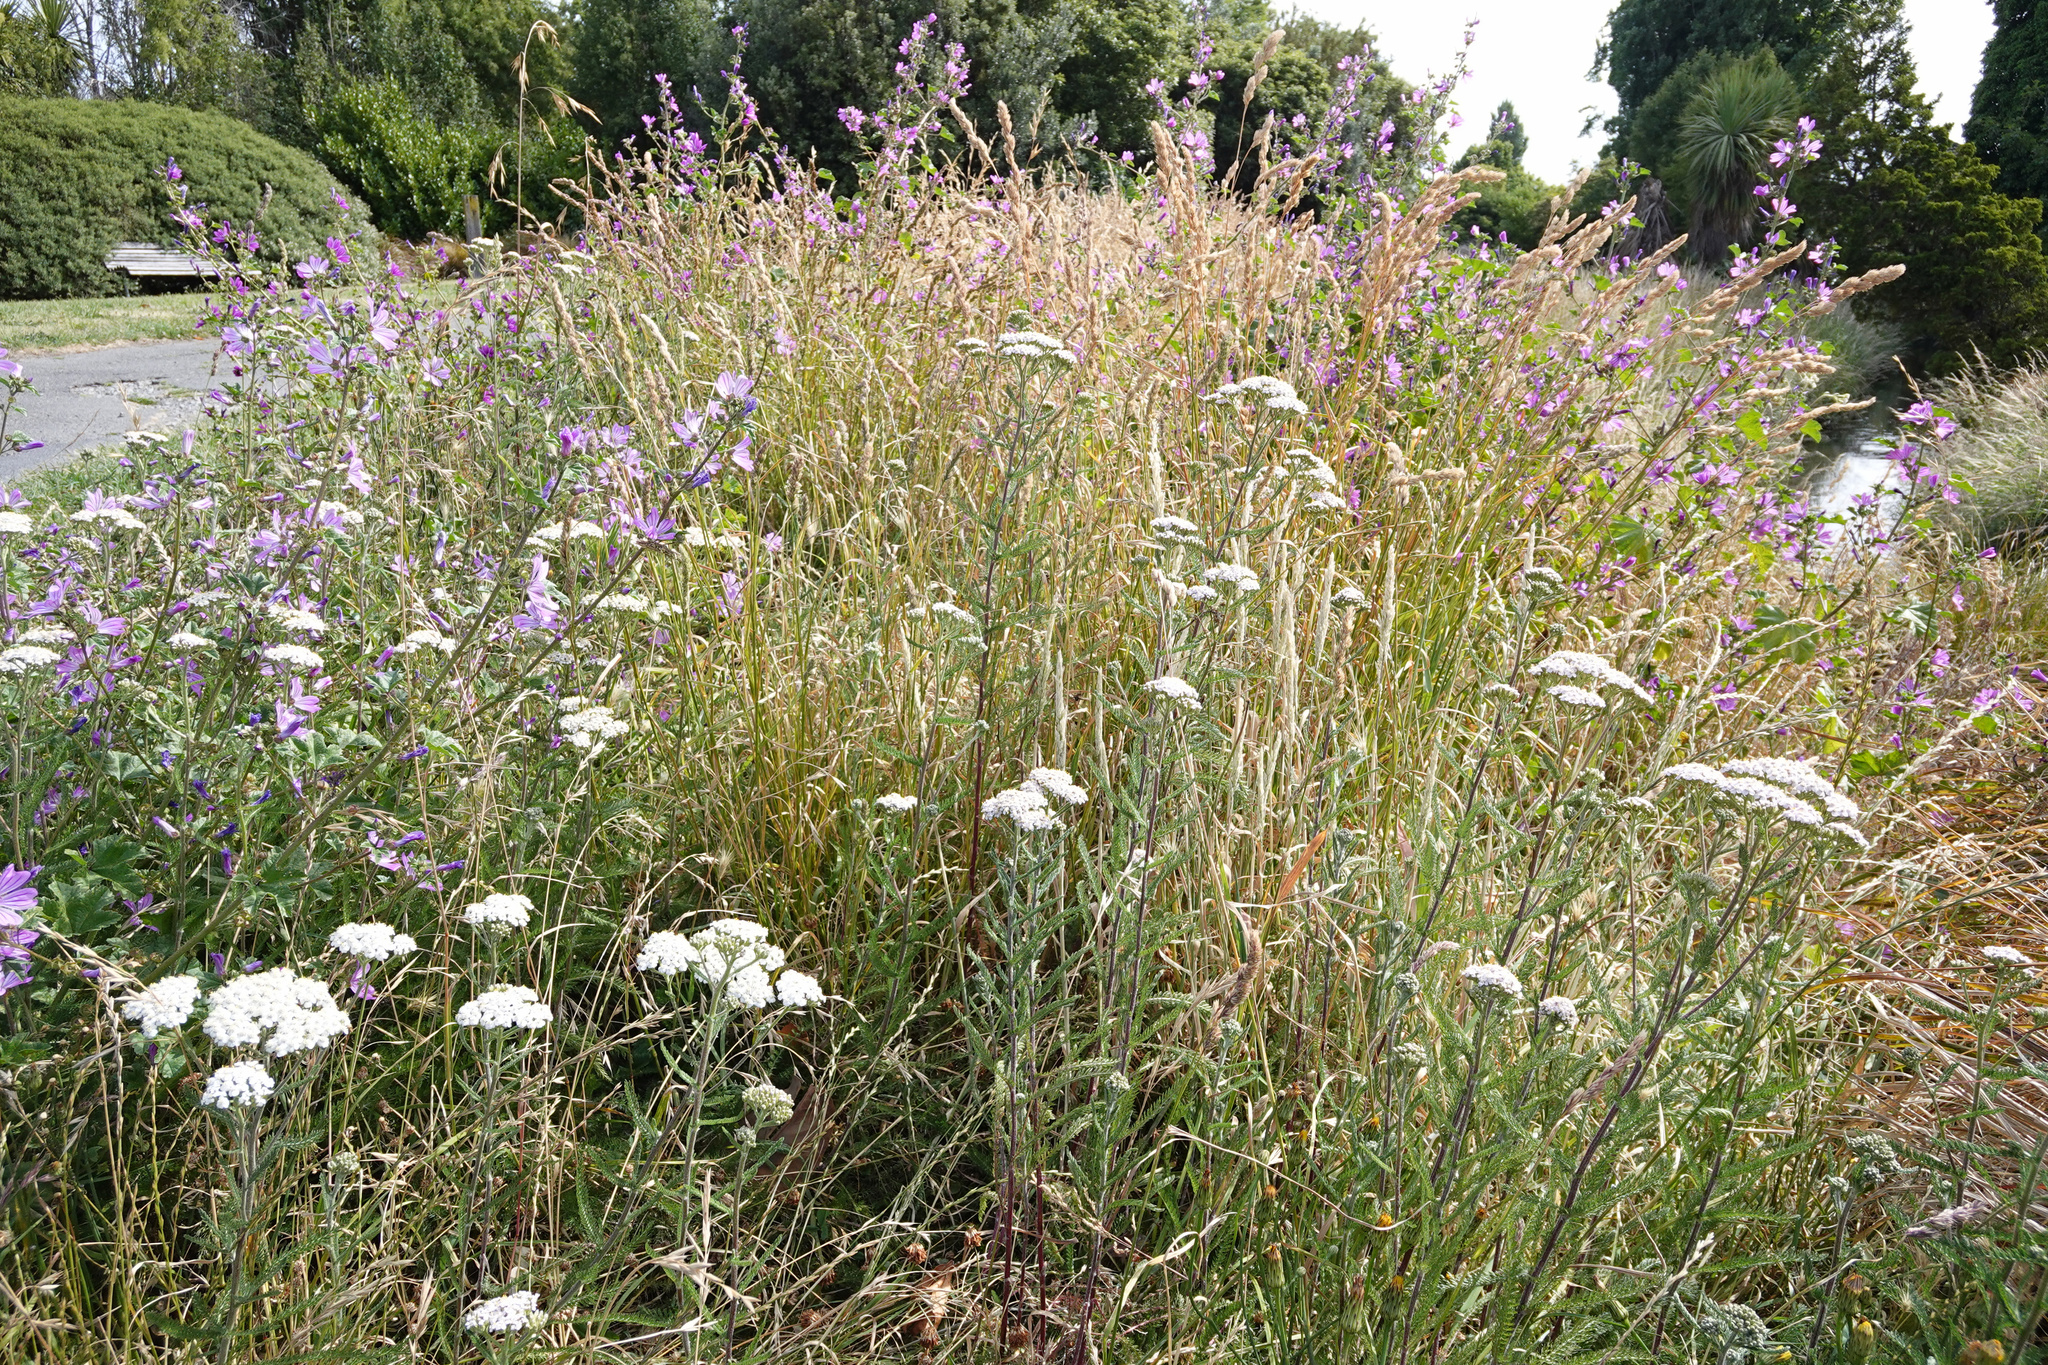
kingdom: Plantae
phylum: Tracheophyta
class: Magnoliopsida
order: Asterales
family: Asteraceae
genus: Achillea
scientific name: Achillea millefolium
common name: Yarrow
